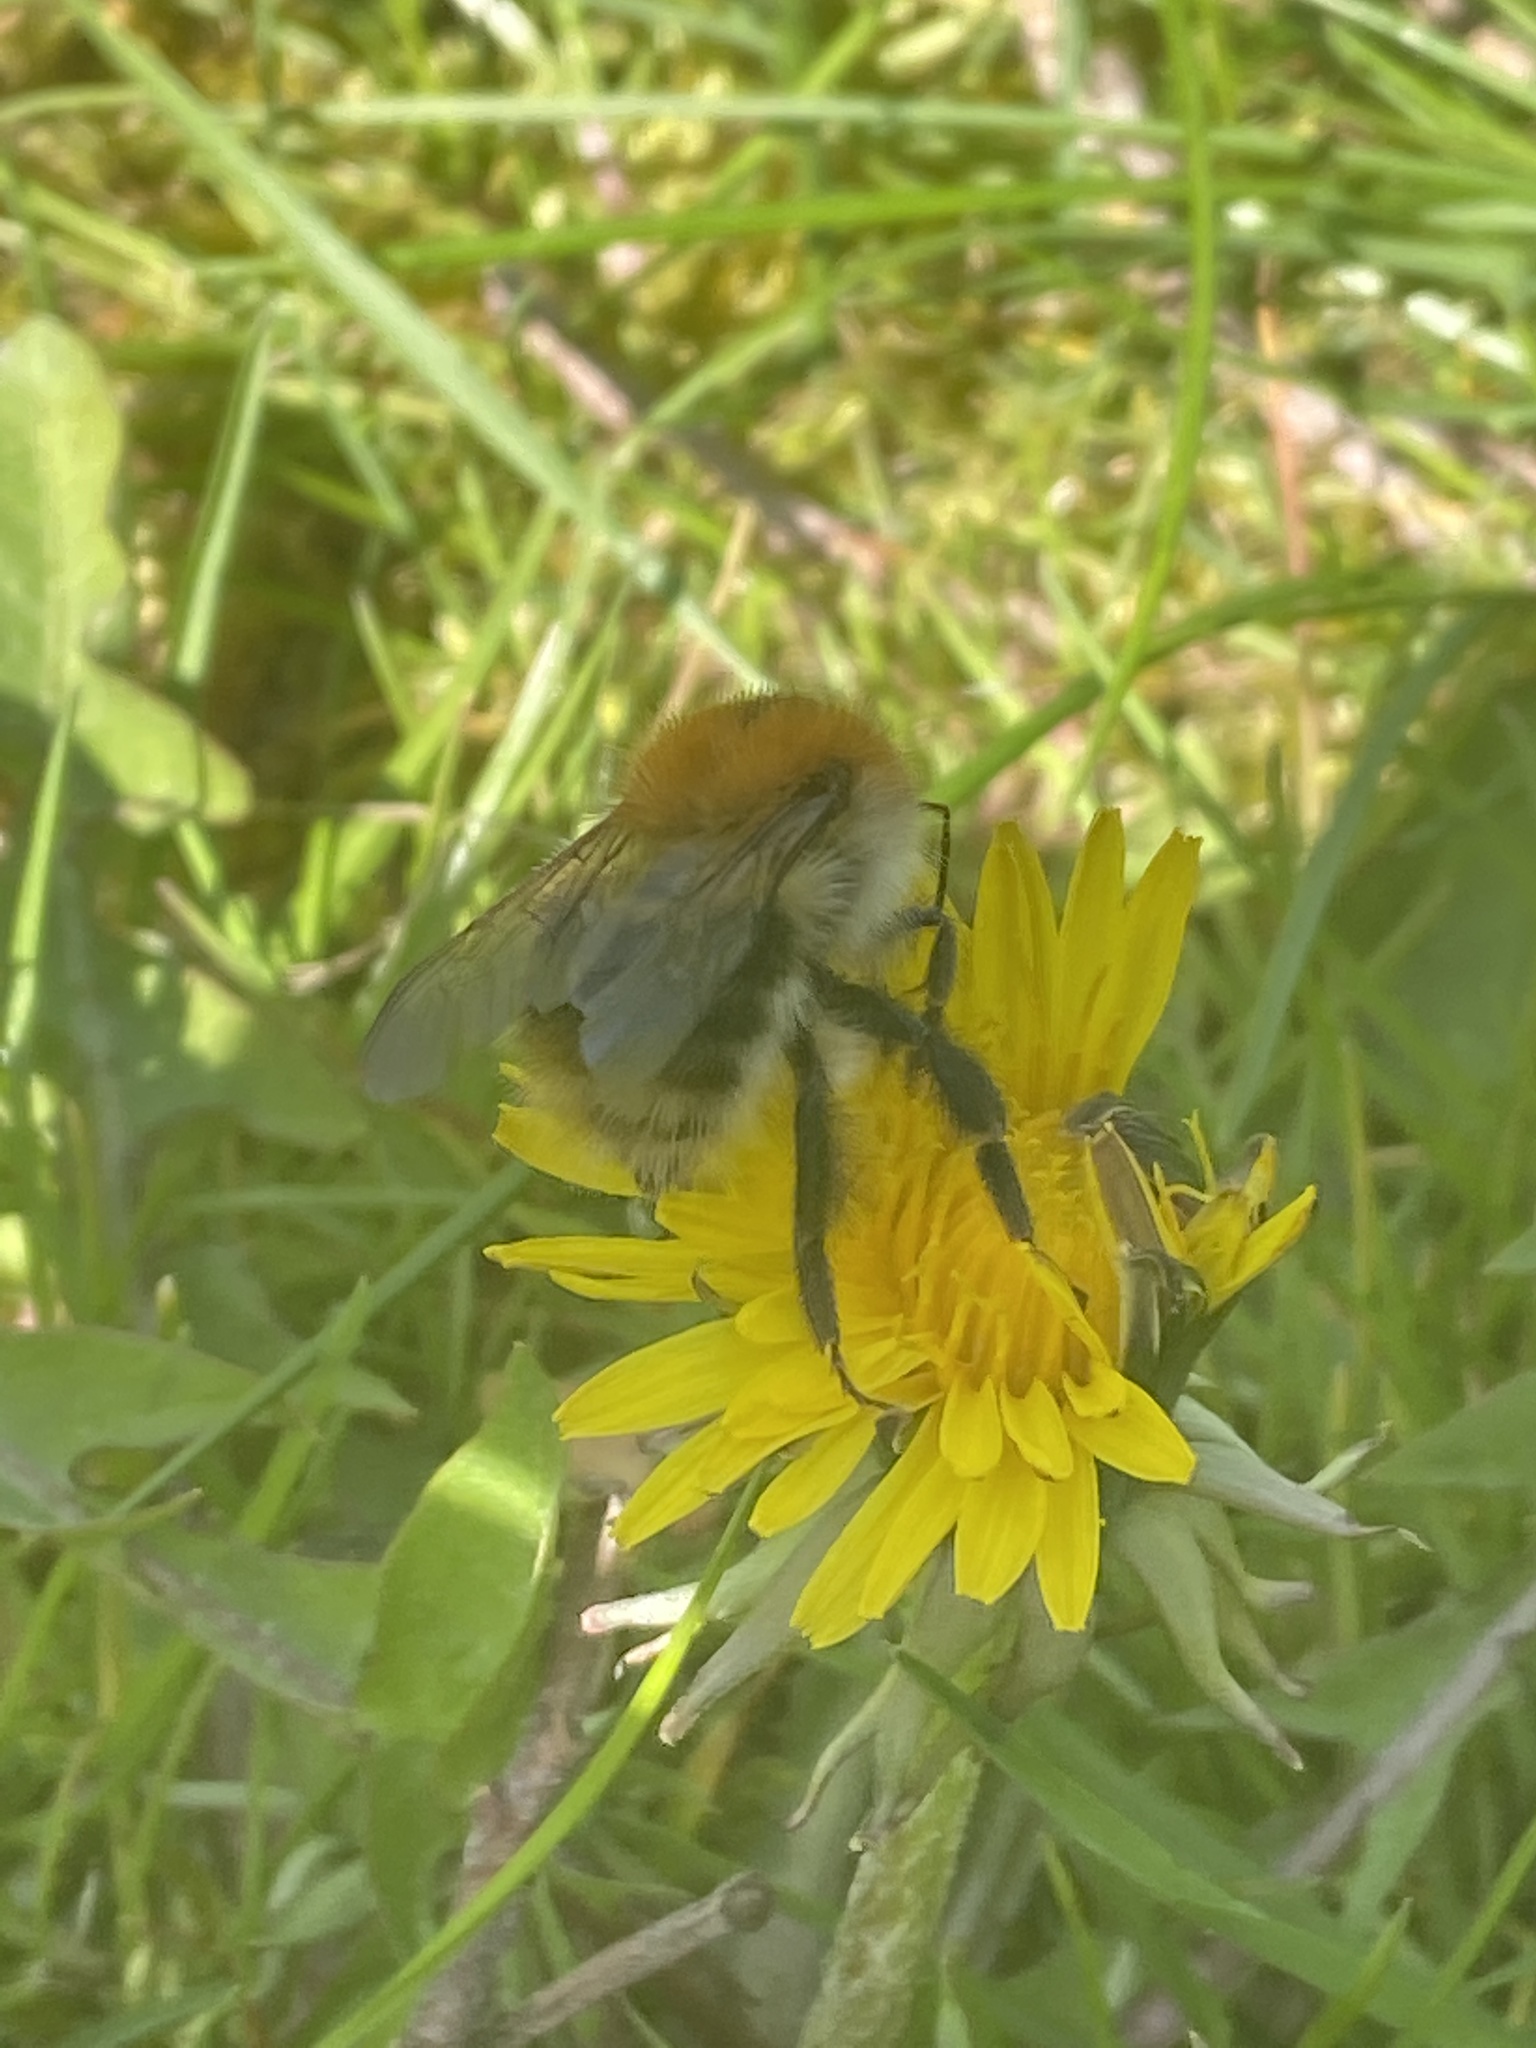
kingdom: Animalia
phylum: Arthropoda
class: Insecta
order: Hymenoptera
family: Apidae
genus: Bombus
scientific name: Bombus pascuorum
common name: Common carder bee
